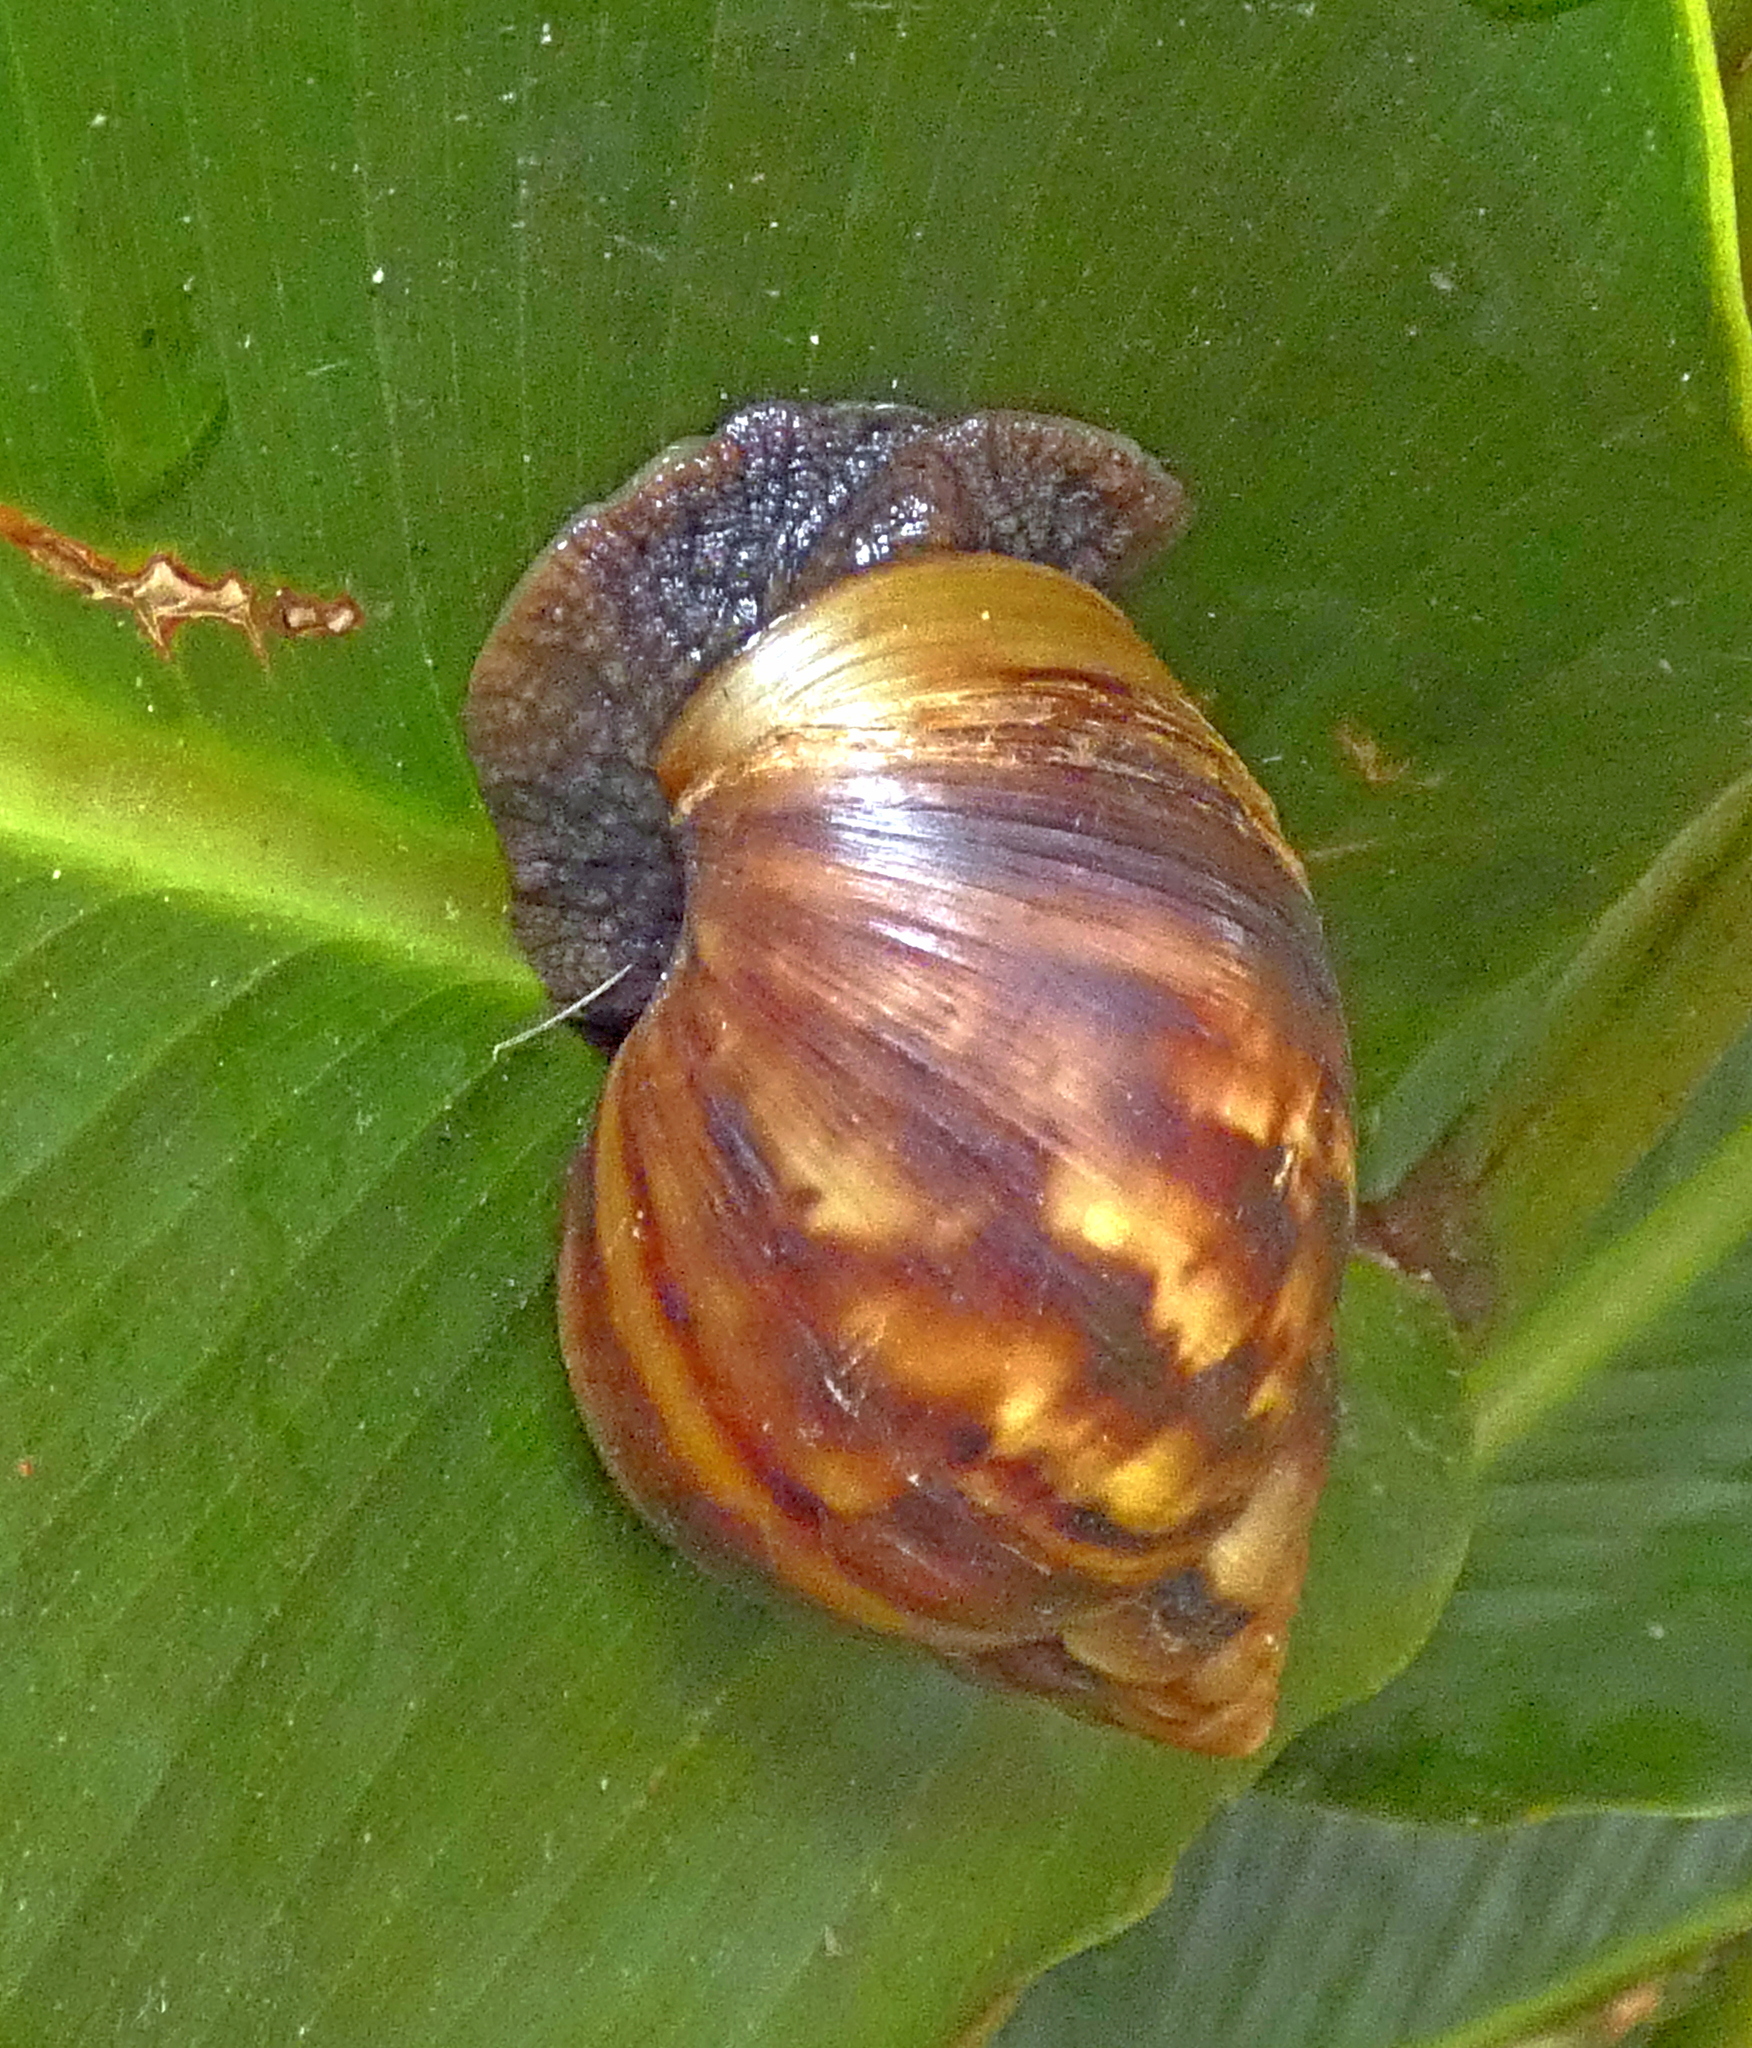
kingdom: Animalia
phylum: Mollusca
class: Gastropoda
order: Stylommatophora
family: Achatinidae
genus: Lissachatina
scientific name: Lissachatina fulica
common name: Giant african snail
